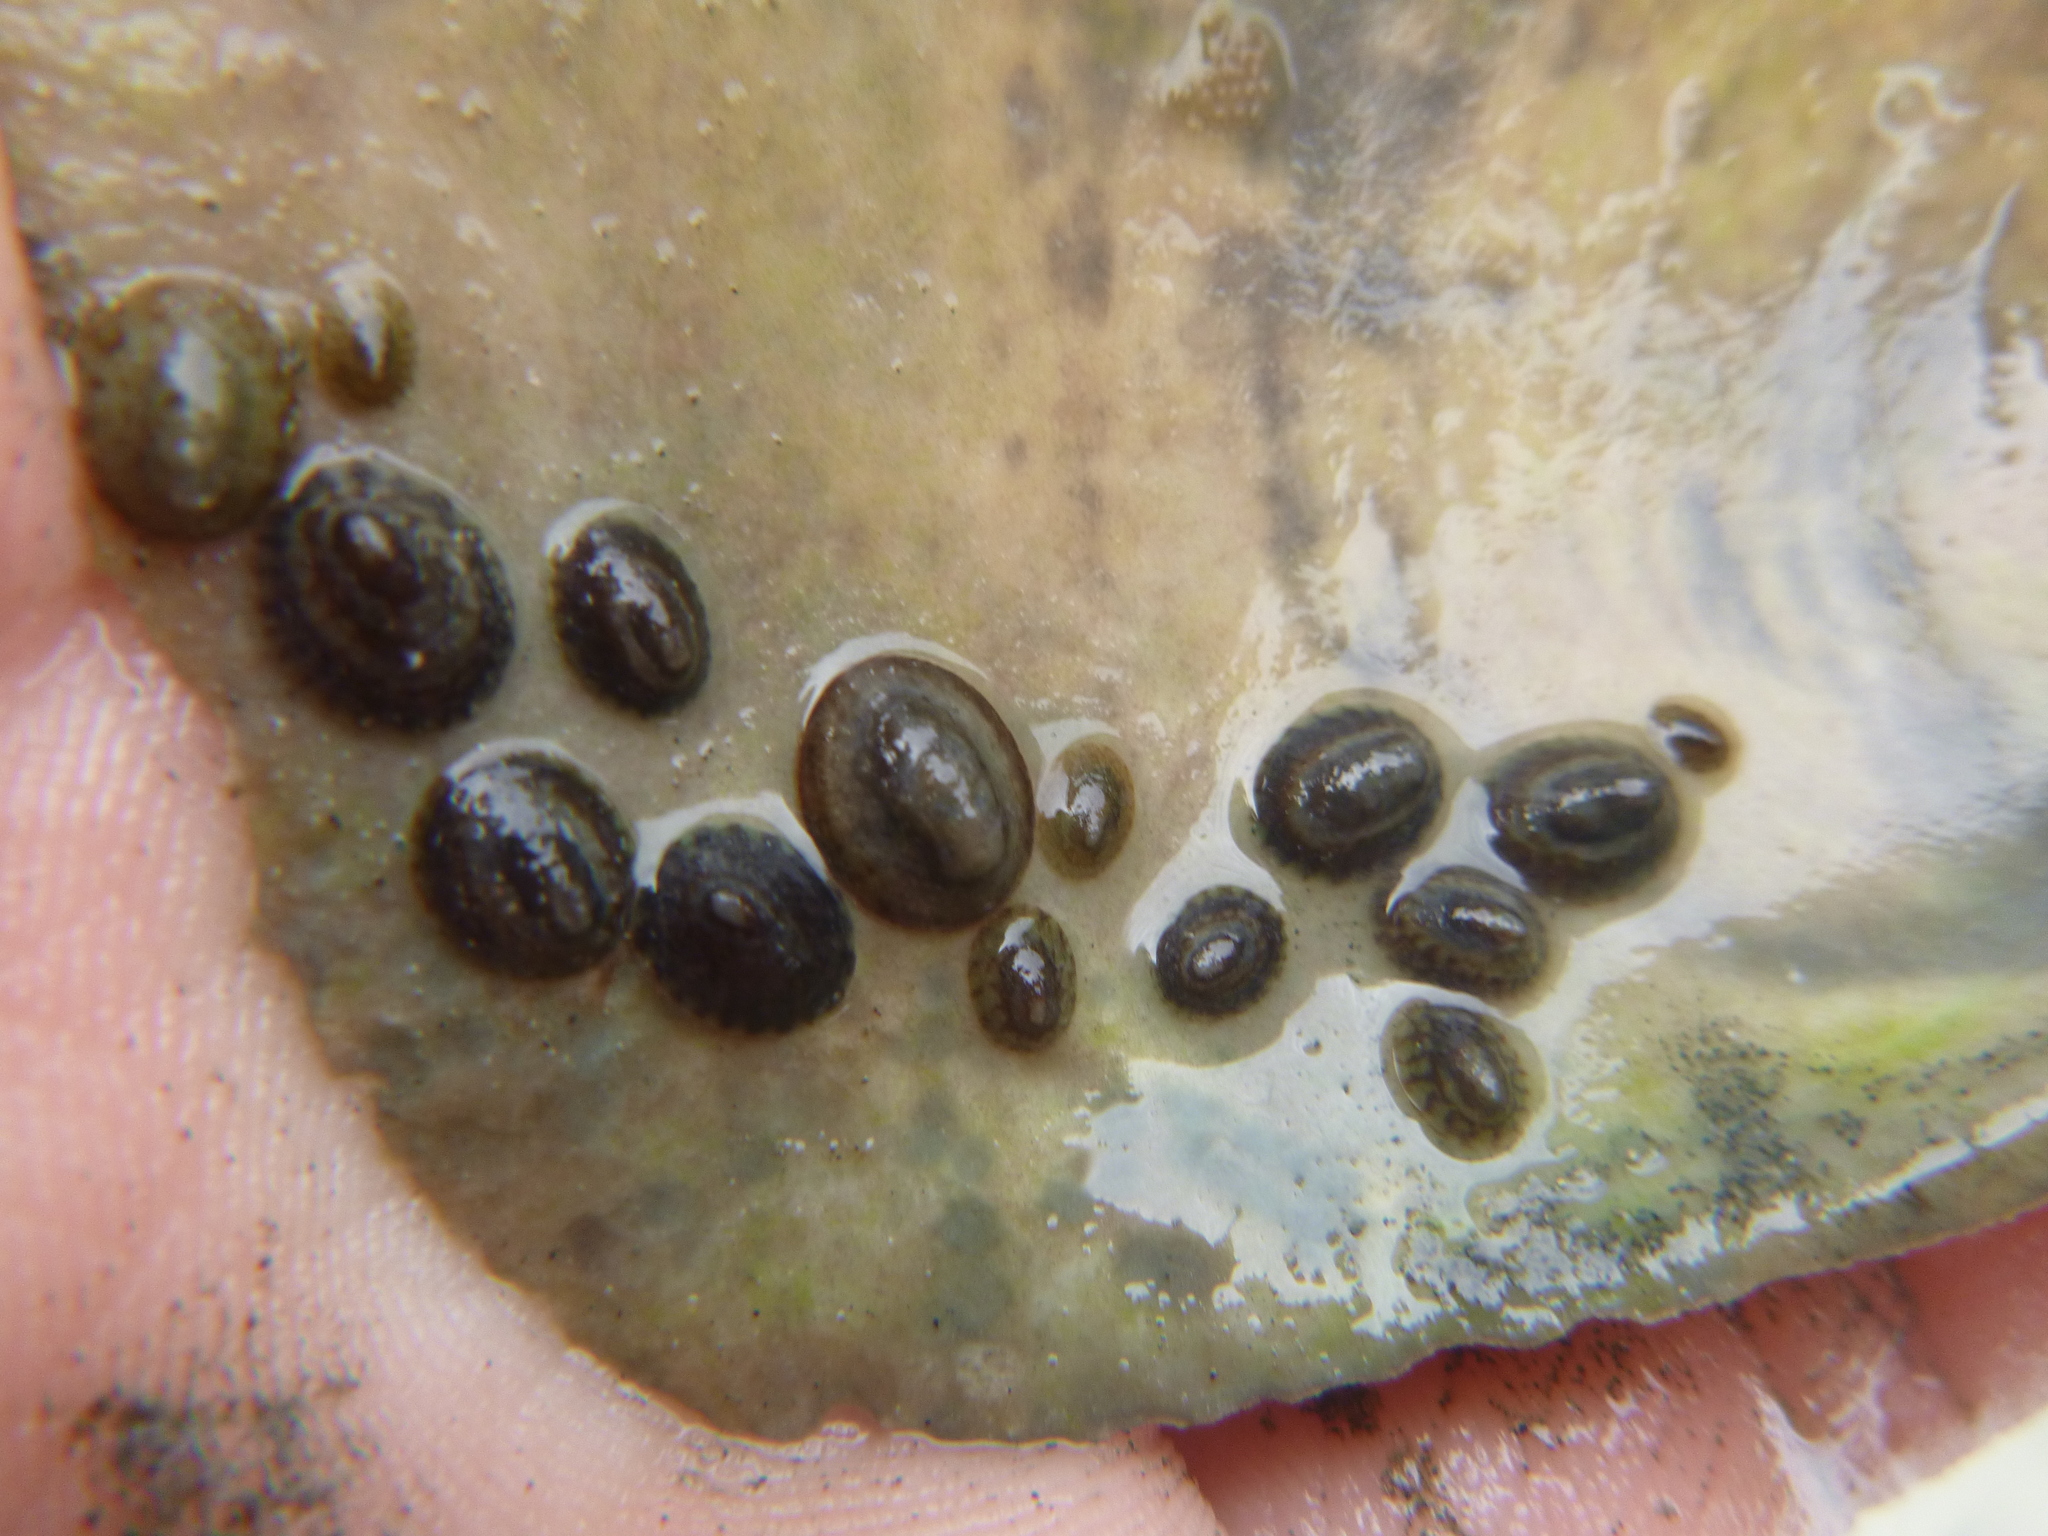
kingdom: Animalia
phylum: Mollusca
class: Gastropoda
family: Lottiidae
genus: Notoacmea
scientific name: Notoacmea
